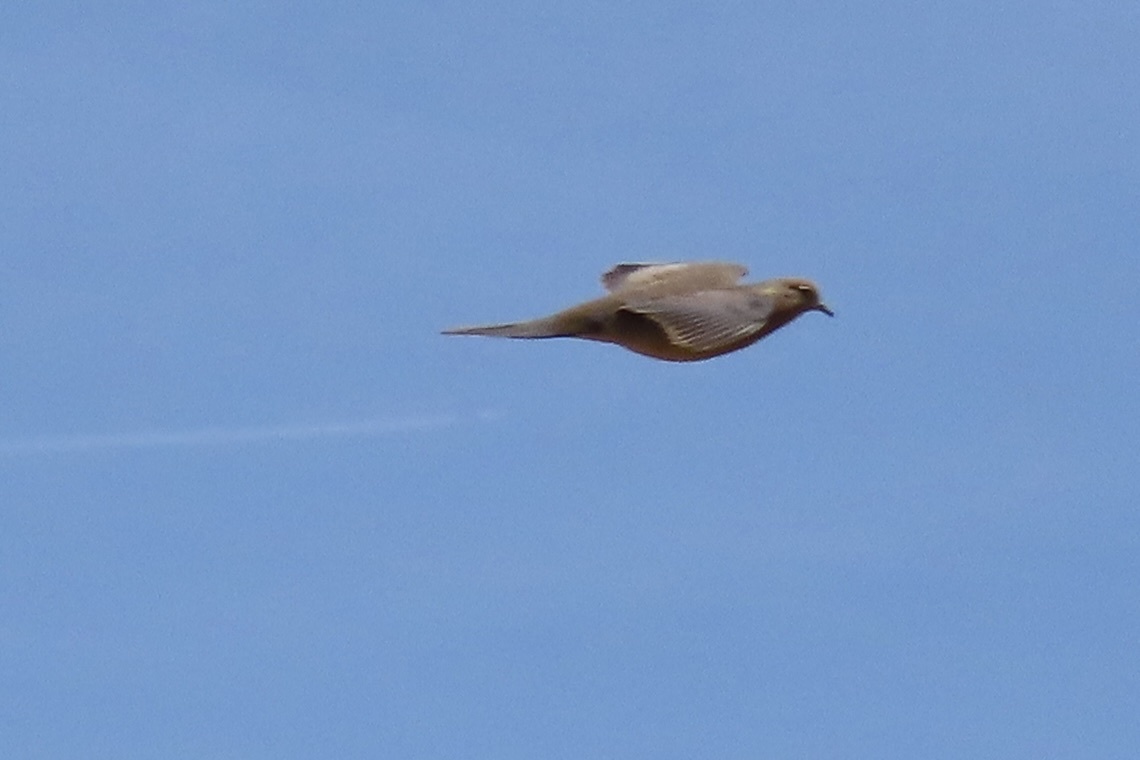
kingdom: Animalia
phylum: Chordata
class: Aves
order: Columbiformes
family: Columbidae
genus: Zenaida
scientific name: Zenaida macroura
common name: Mourning dove
